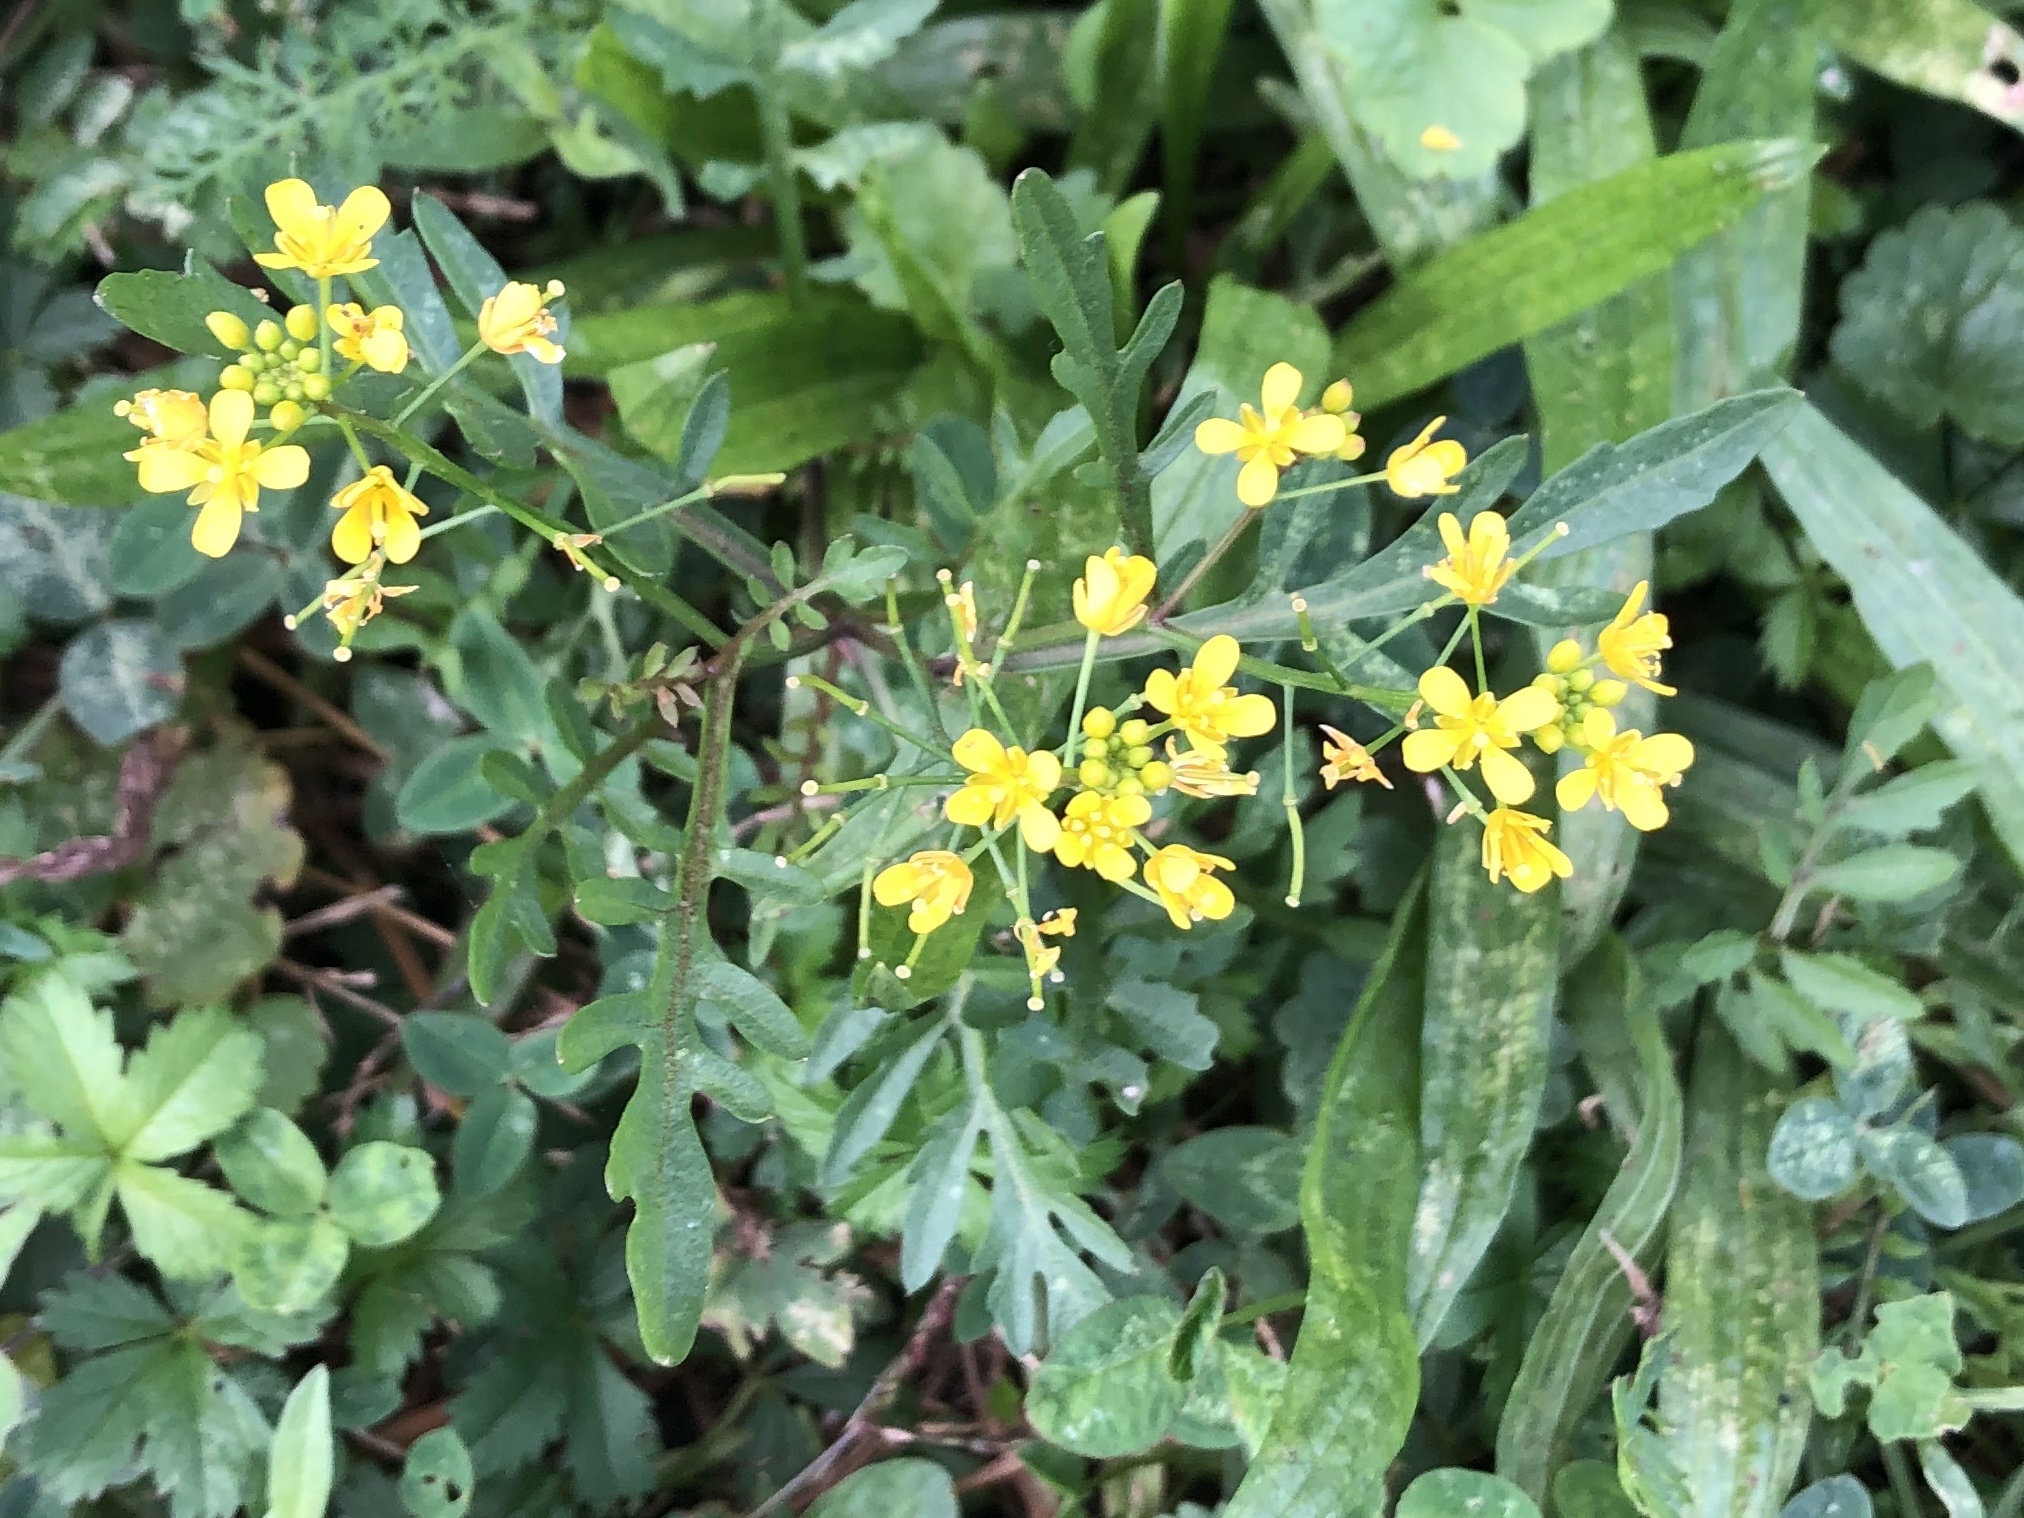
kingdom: Plantae
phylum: Tracheophyta
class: Magnoliopsida
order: Brassicales
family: Brassicaceae
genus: Rorippa
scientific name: Rorippa sylvestris
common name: Creeping yellowcress
